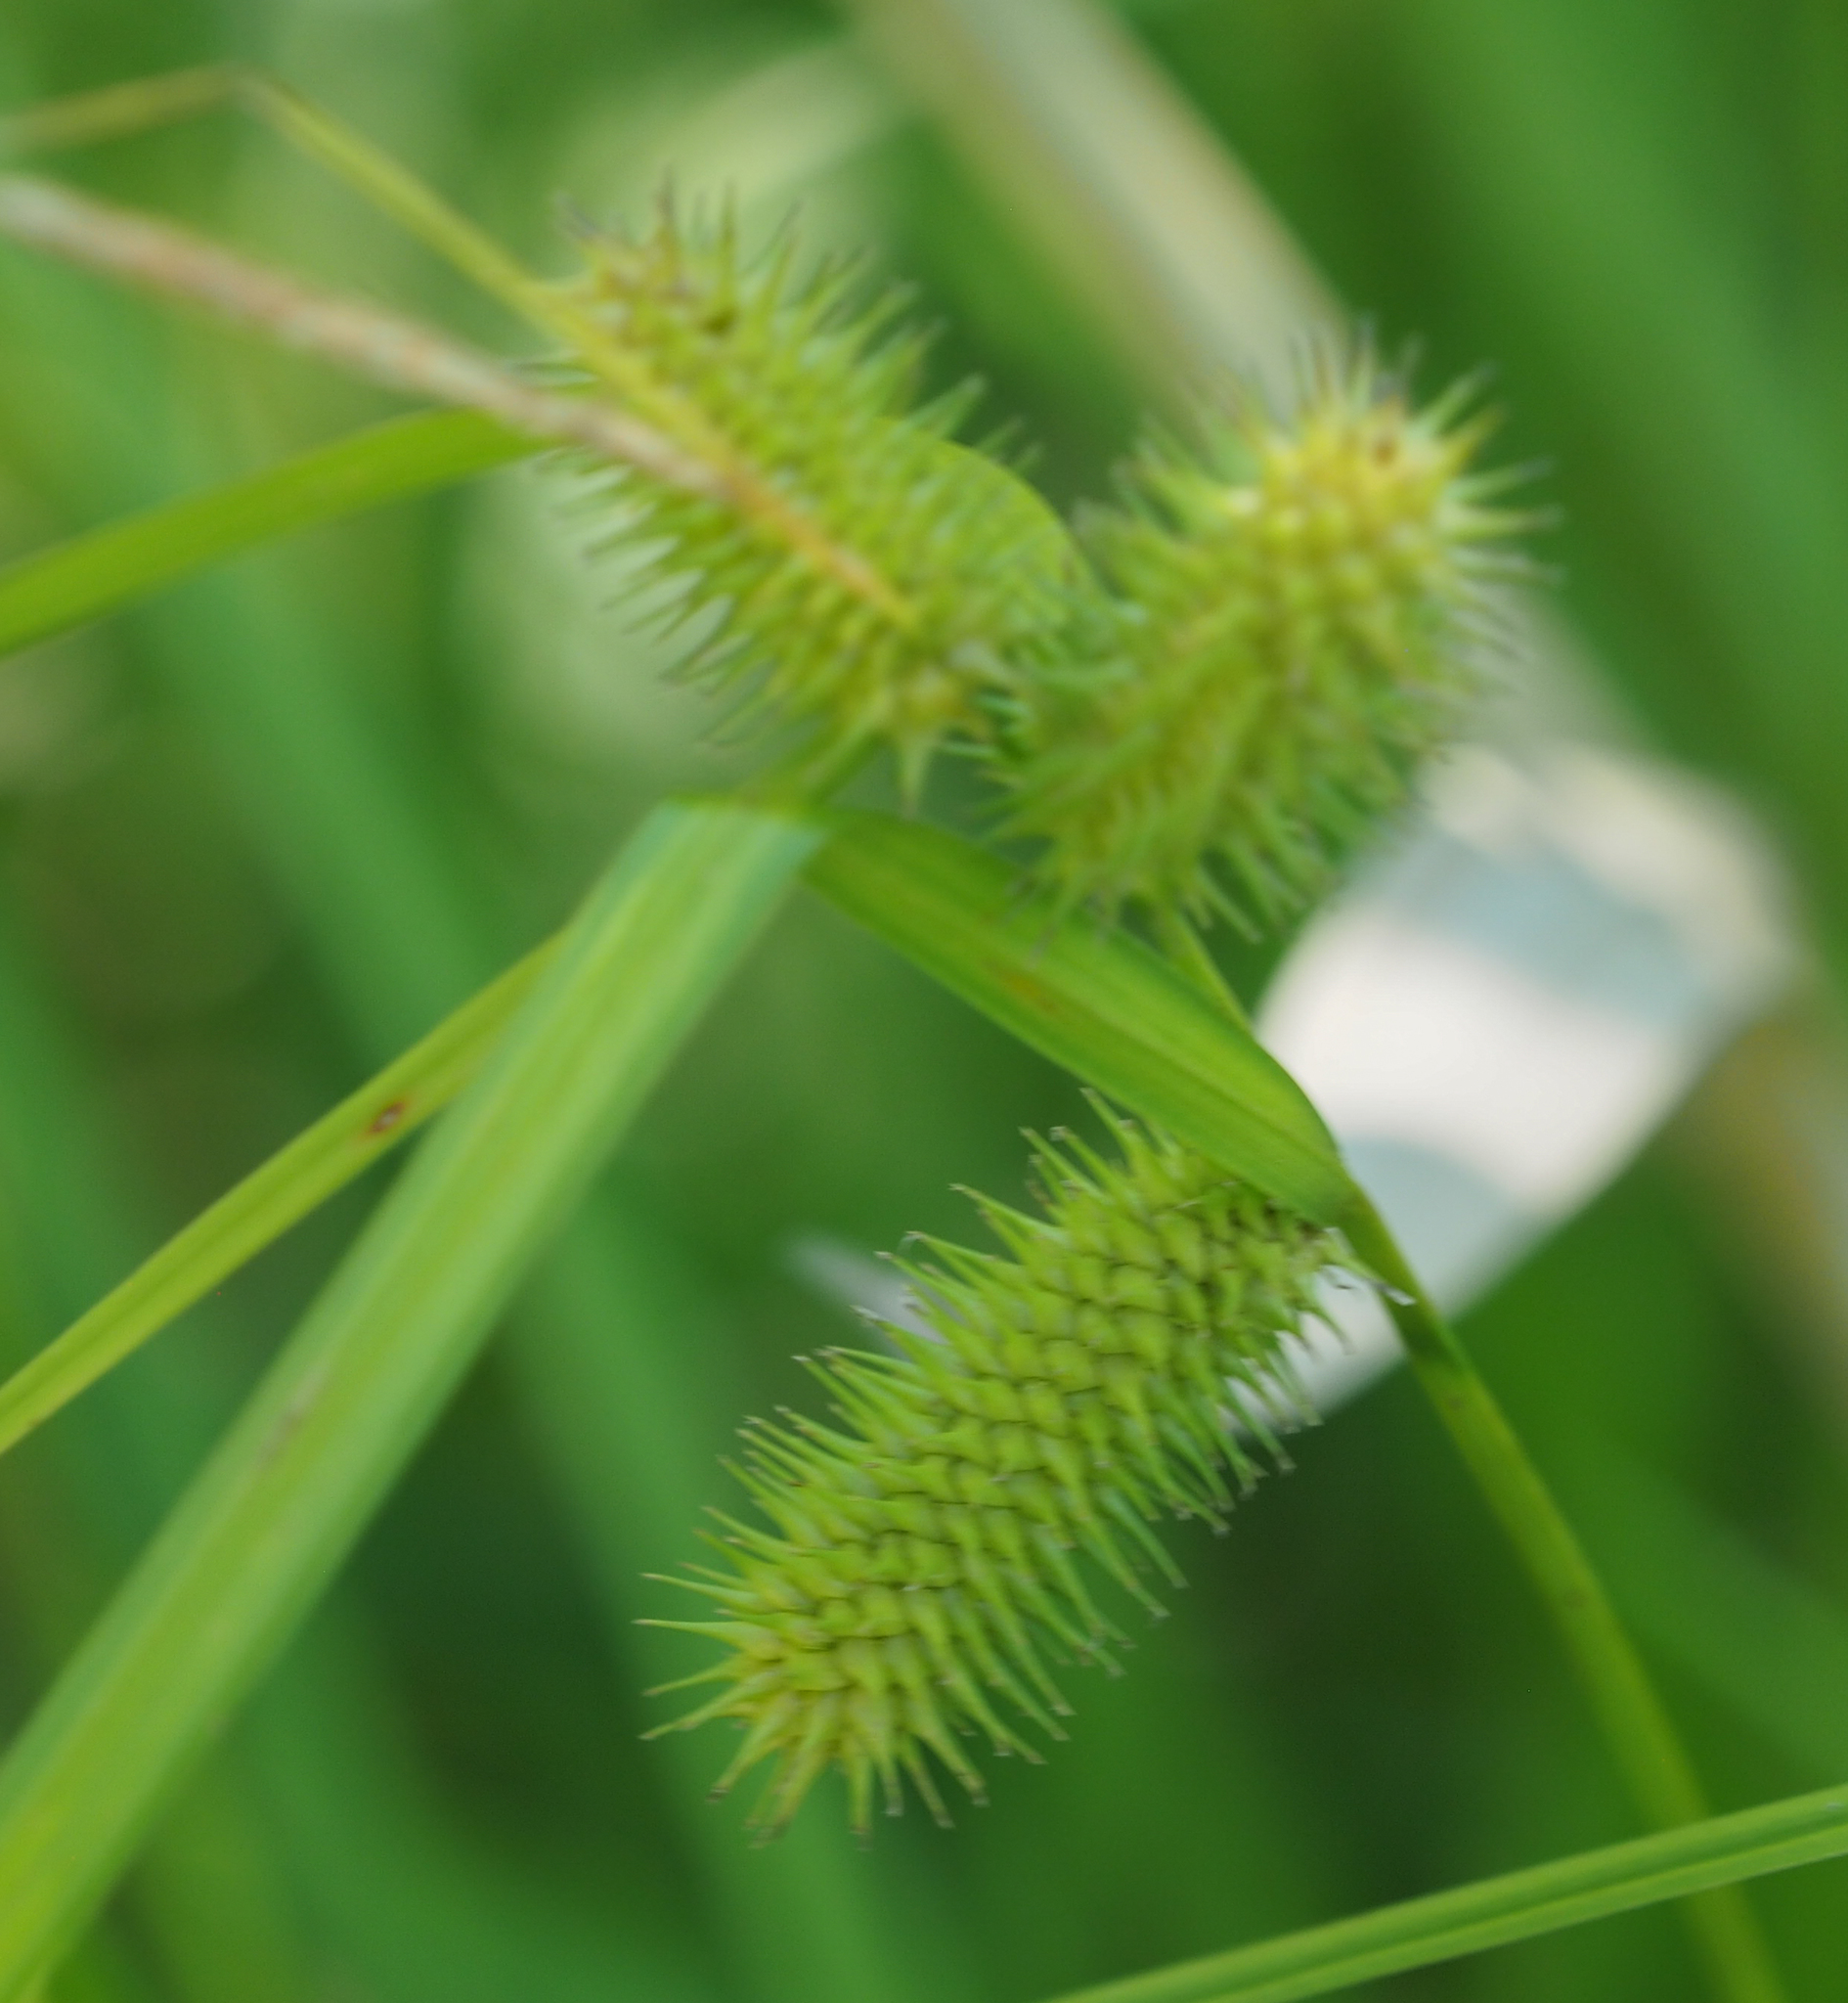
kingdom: Plantae
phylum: Tracheophyta
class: Liliopsida
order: Poales
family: Cyperaceae
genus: Carex
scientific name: Carex lurida
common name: Sallow sedge
